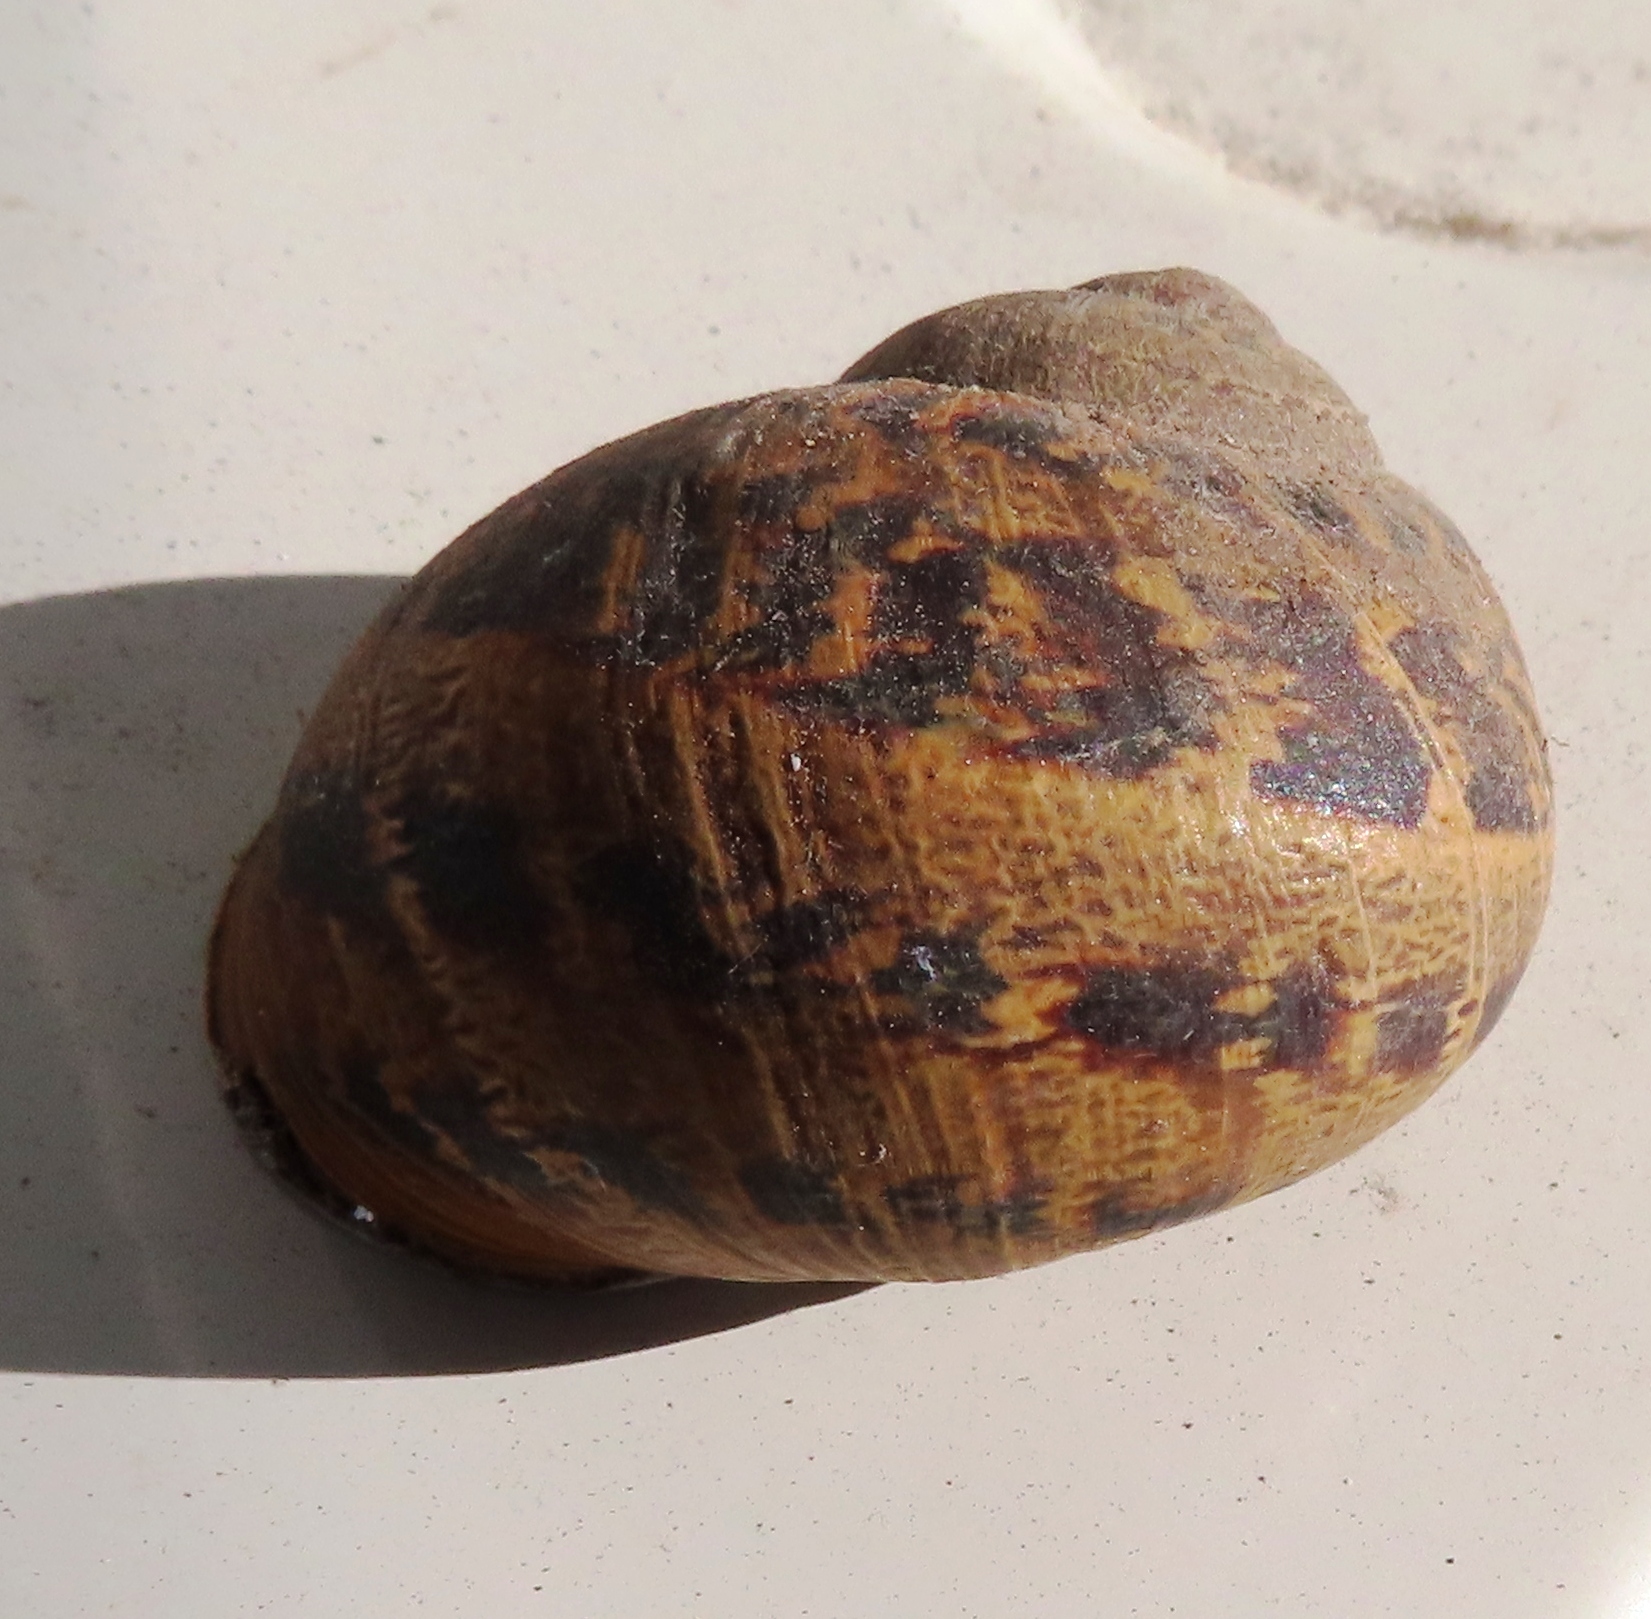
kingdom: Animalia
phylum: Mollusca
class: Gastropoda
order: Stylommatophora
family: Helicidae
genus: Cornu
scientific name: Cornu aspersum
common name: Brown garden snail
